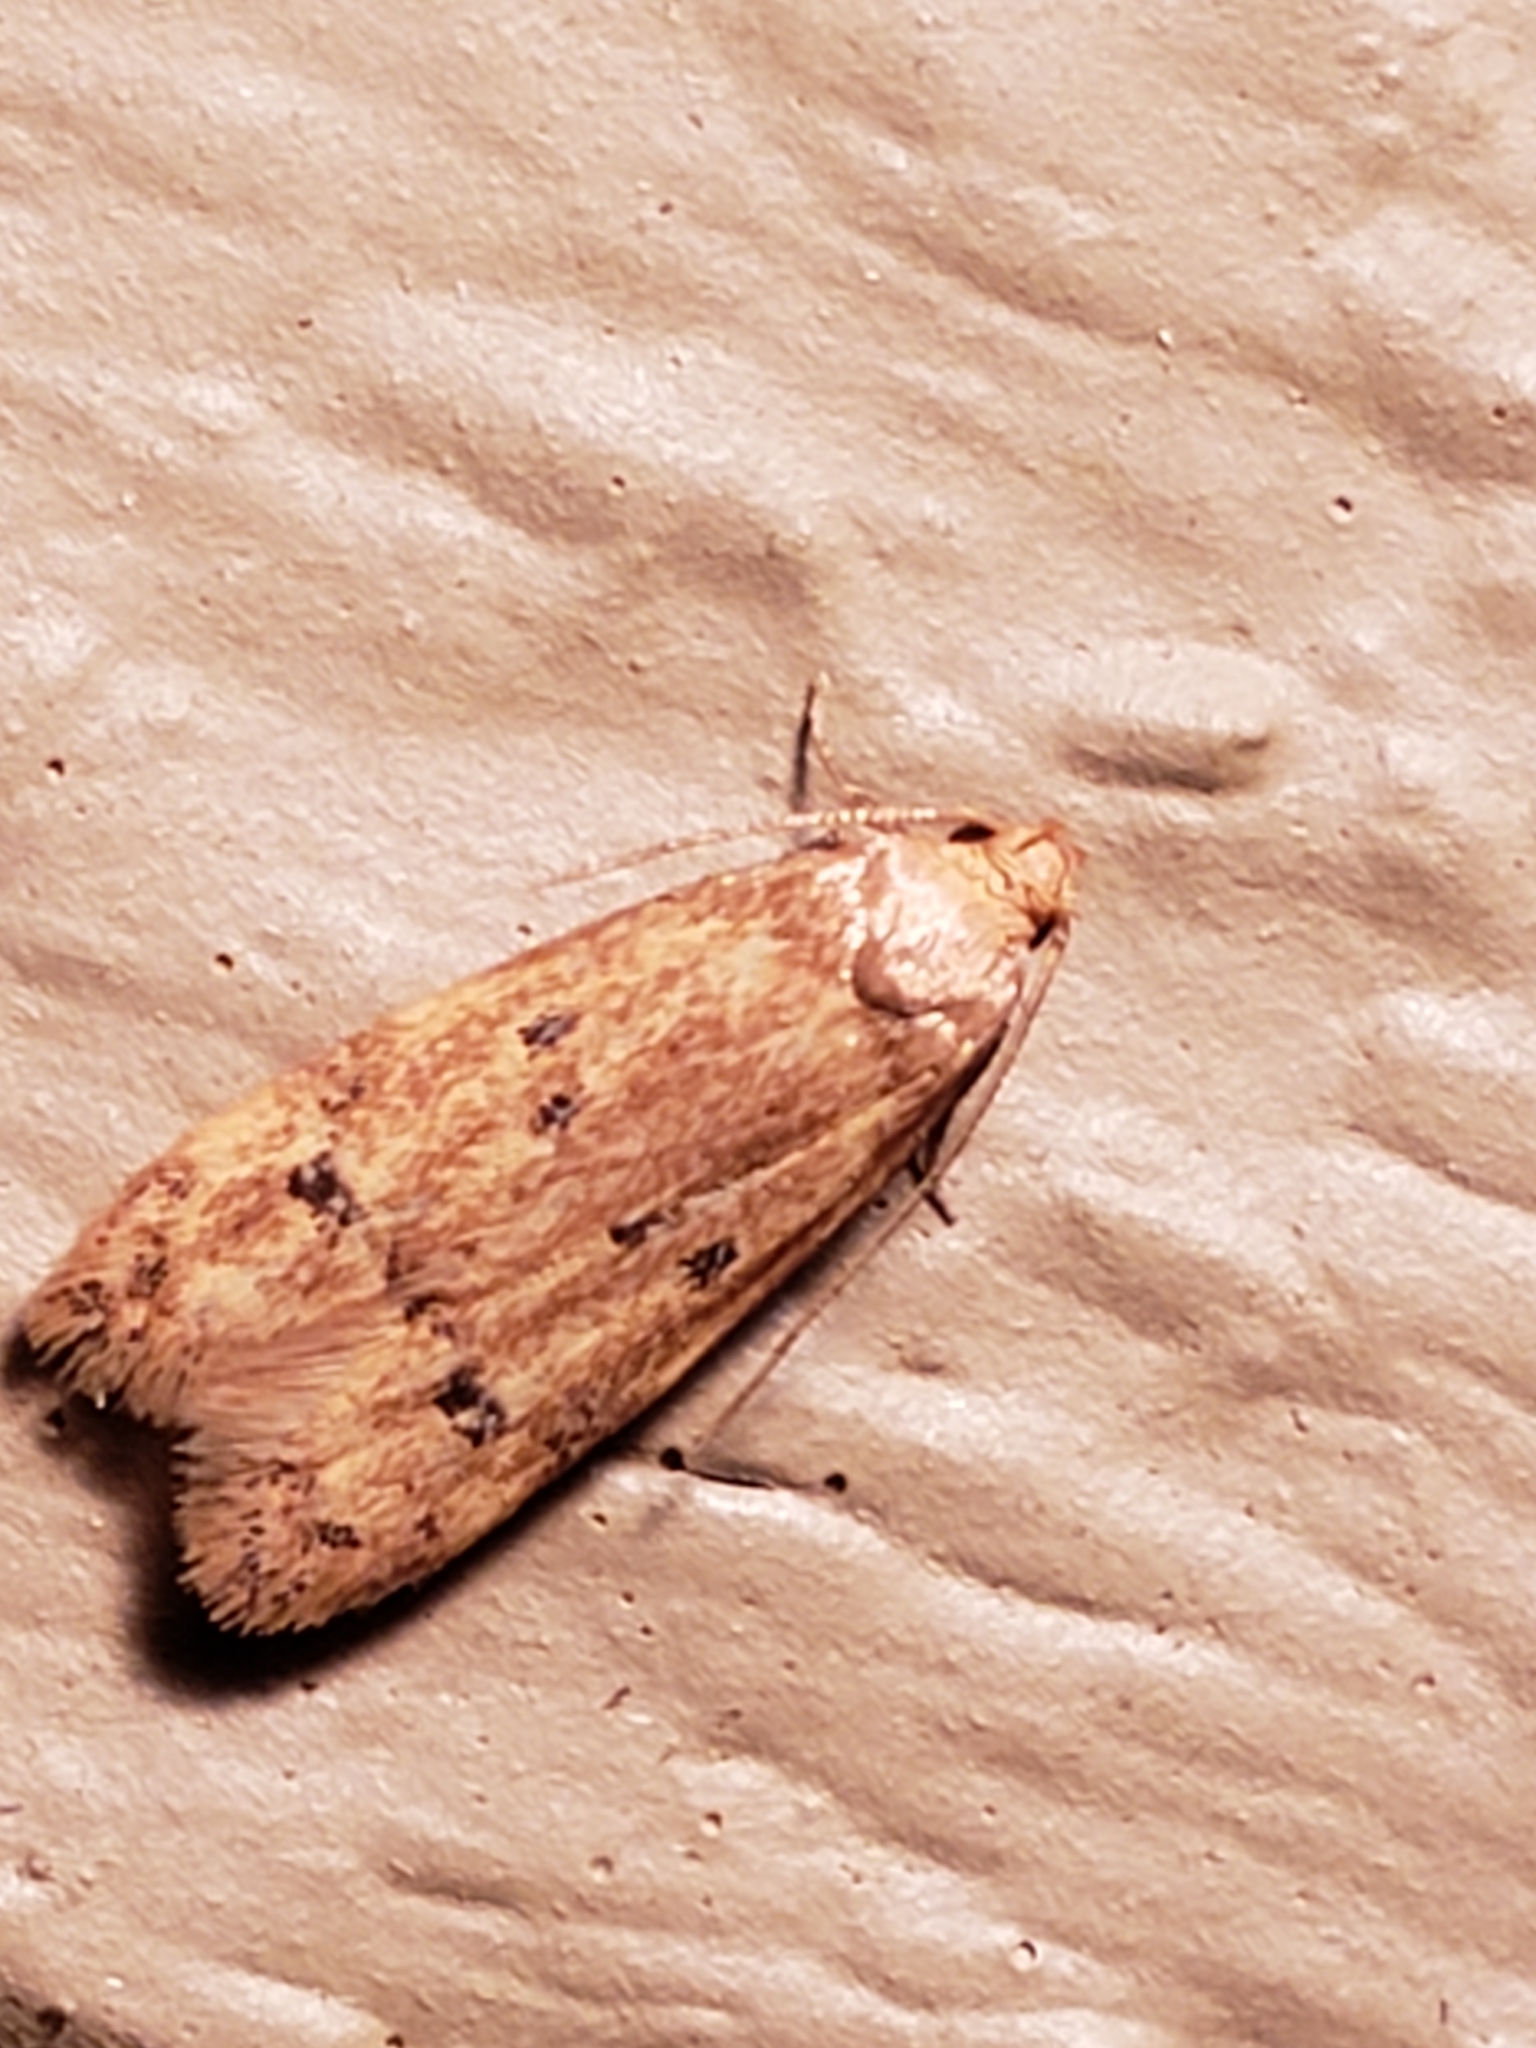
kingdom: Animalia
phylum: Arthropoda
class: Insecta
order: Lepidoptera
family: Autostichidae
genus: Gerdana
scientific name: Gerdana caritella
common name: Gerdana moth
